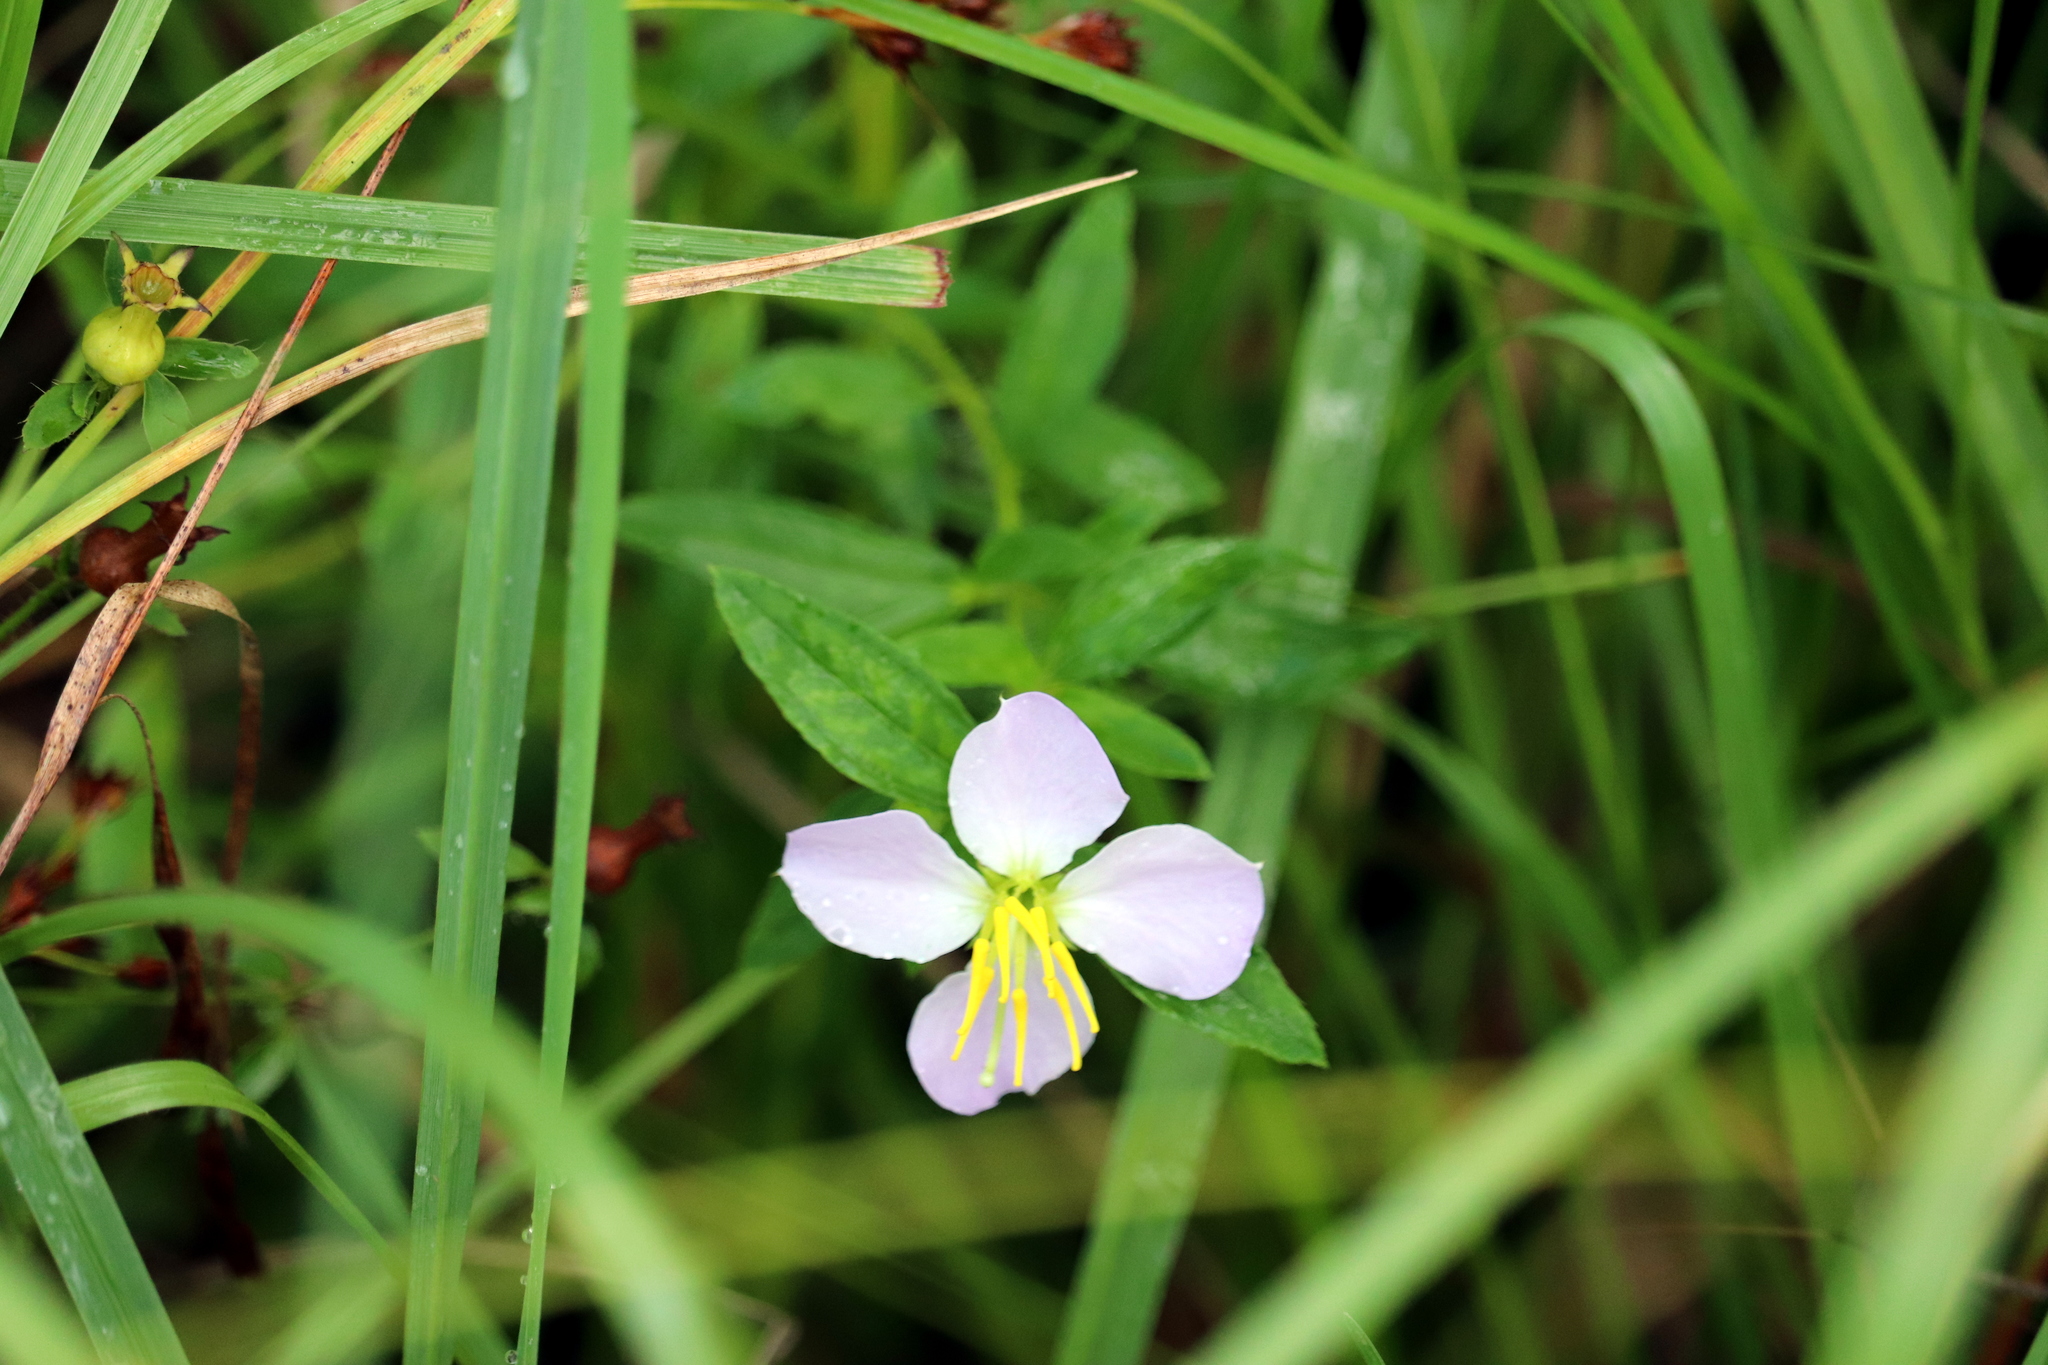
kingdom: Plantae
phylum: Tracheophyta
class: Magnoliopsida
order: Myrtales
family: Melastomataceae
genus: Rhexia
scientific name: Rhexia mariana
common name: Dull meadow-pitcher
